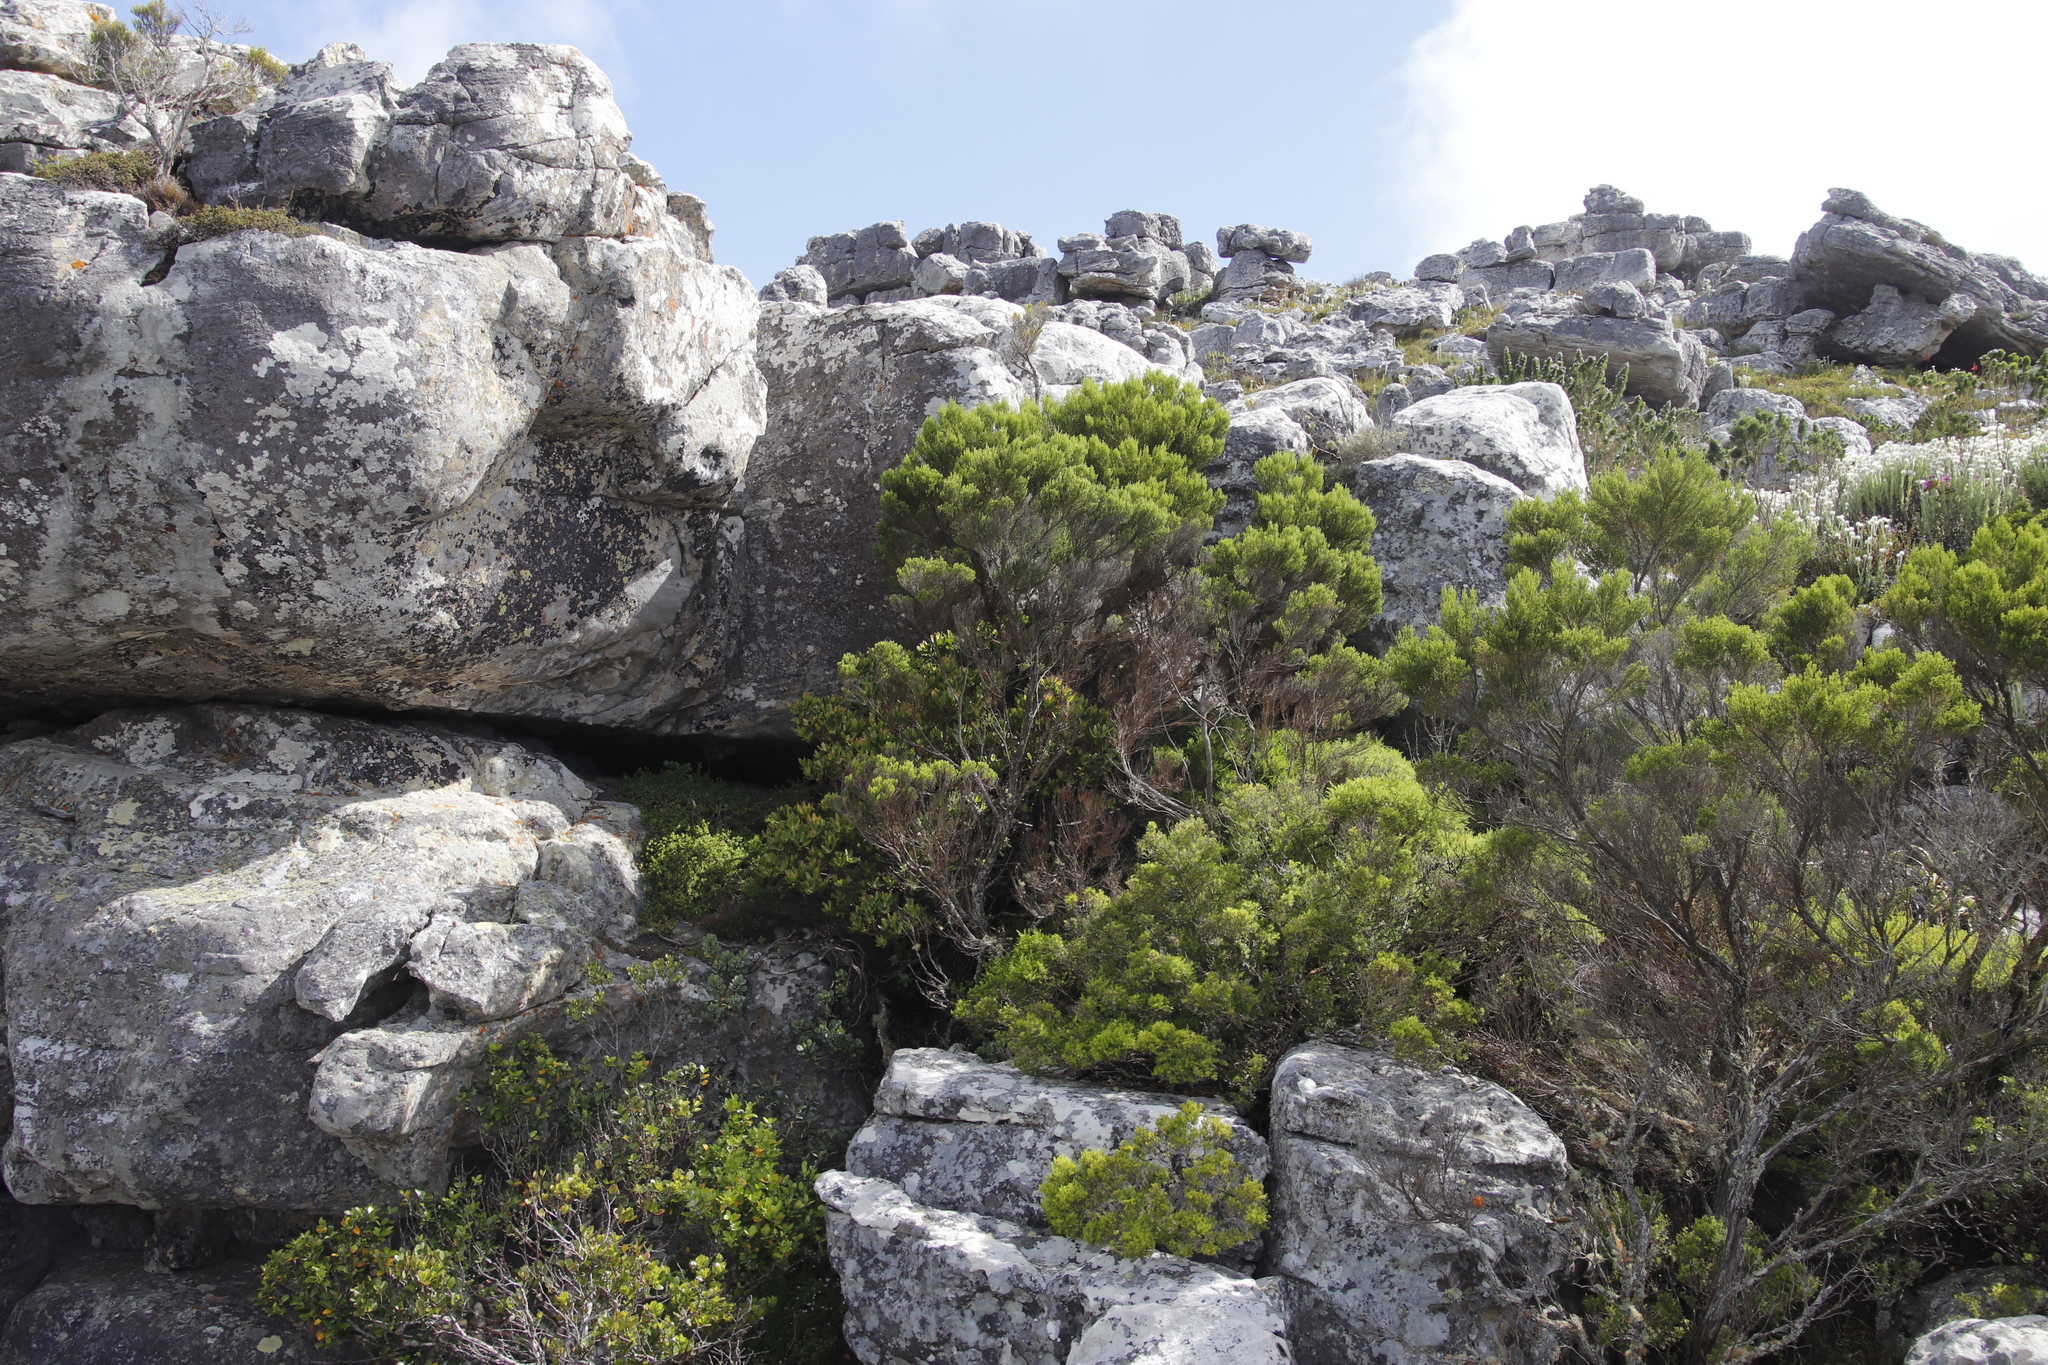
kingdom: Plantae
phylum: Tracheophyta
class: Magnoliopsida
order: Ericales
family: Ericaceae
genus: Erica
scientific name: Erica tristis
